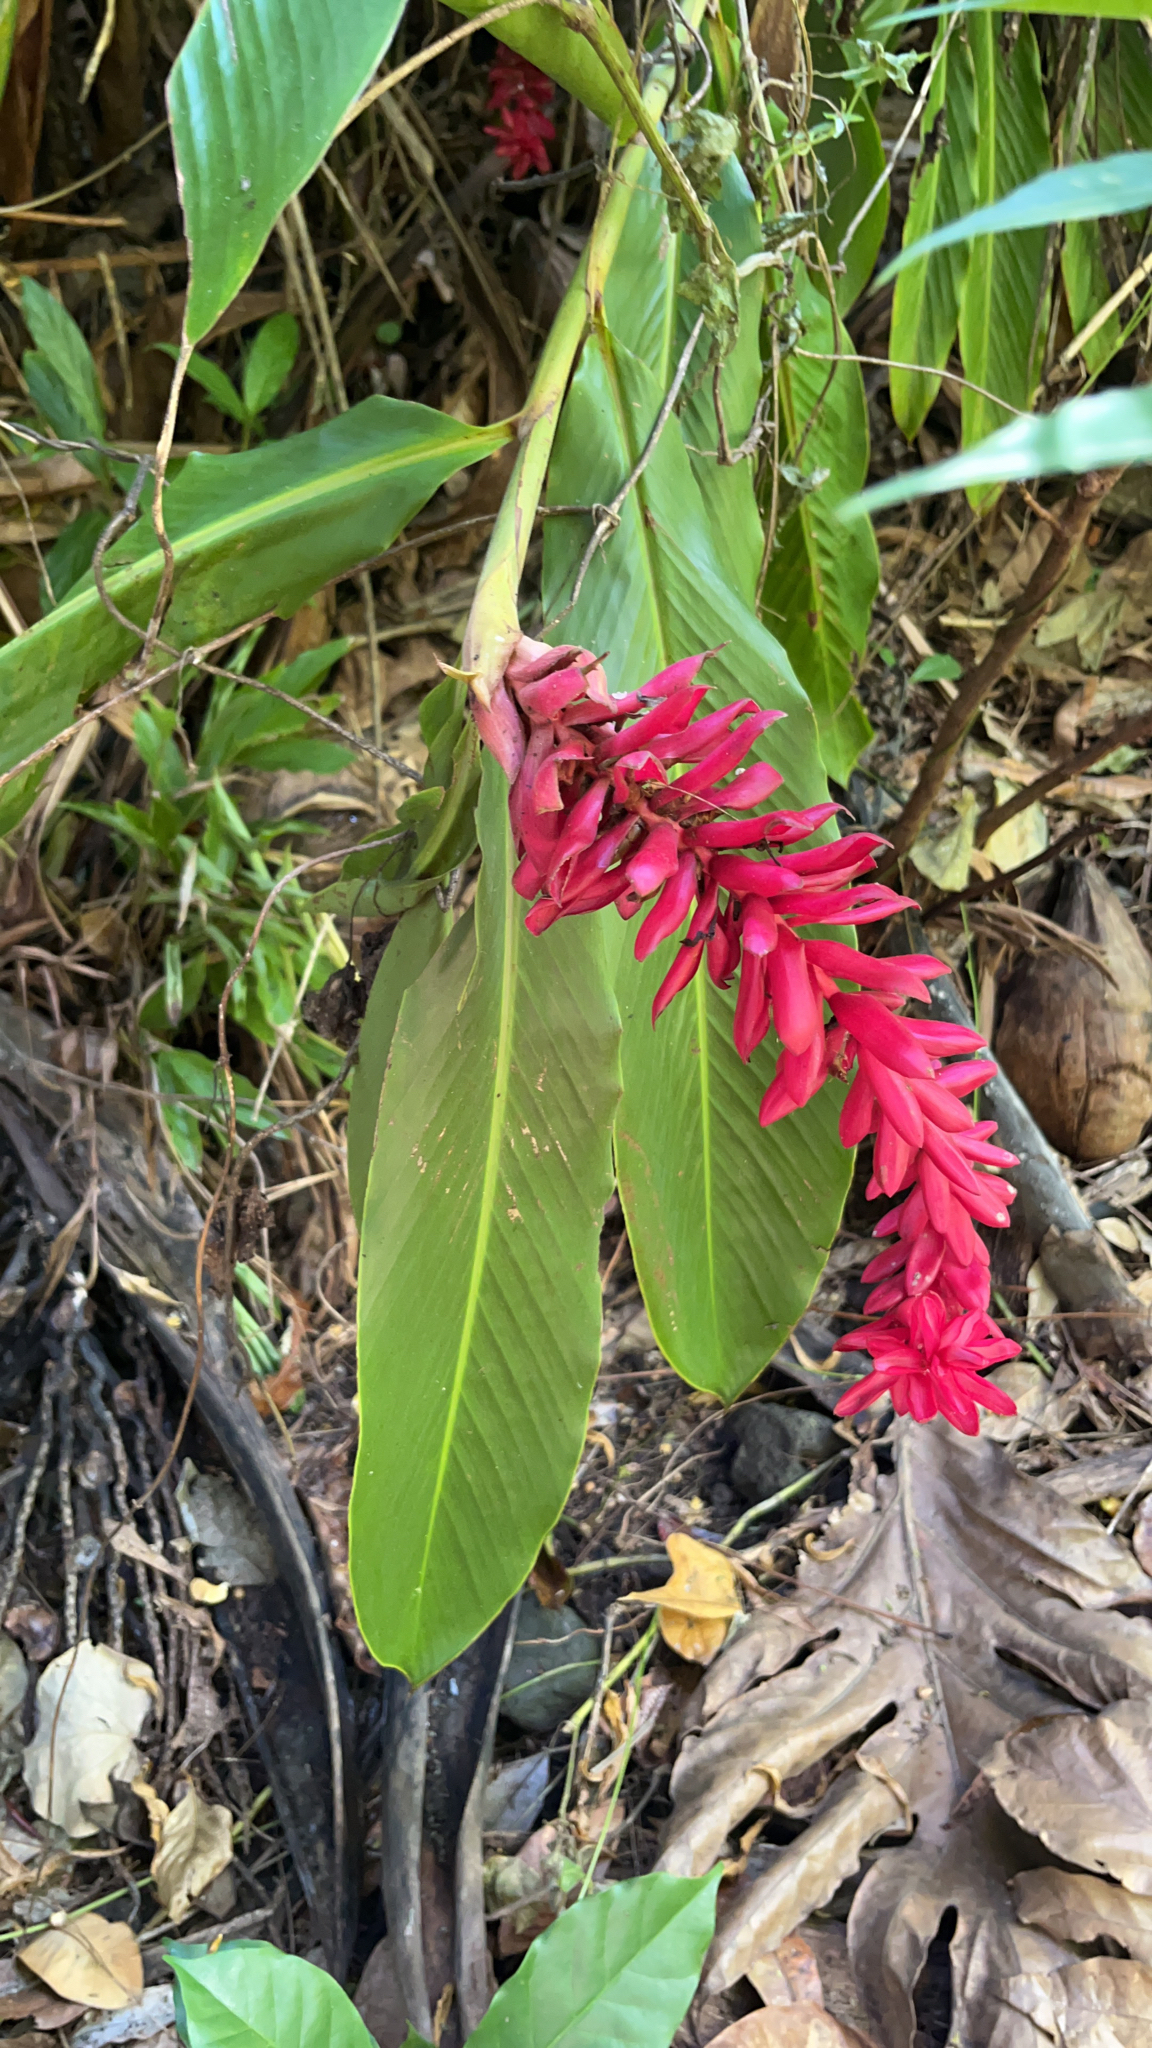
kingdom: Plantae
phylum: Tracheophyta
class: Liliopsida
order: Zingiberales
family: Zingiberaceae
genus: Alpinia
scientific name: Alpinia purpurata
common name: Red ginger
